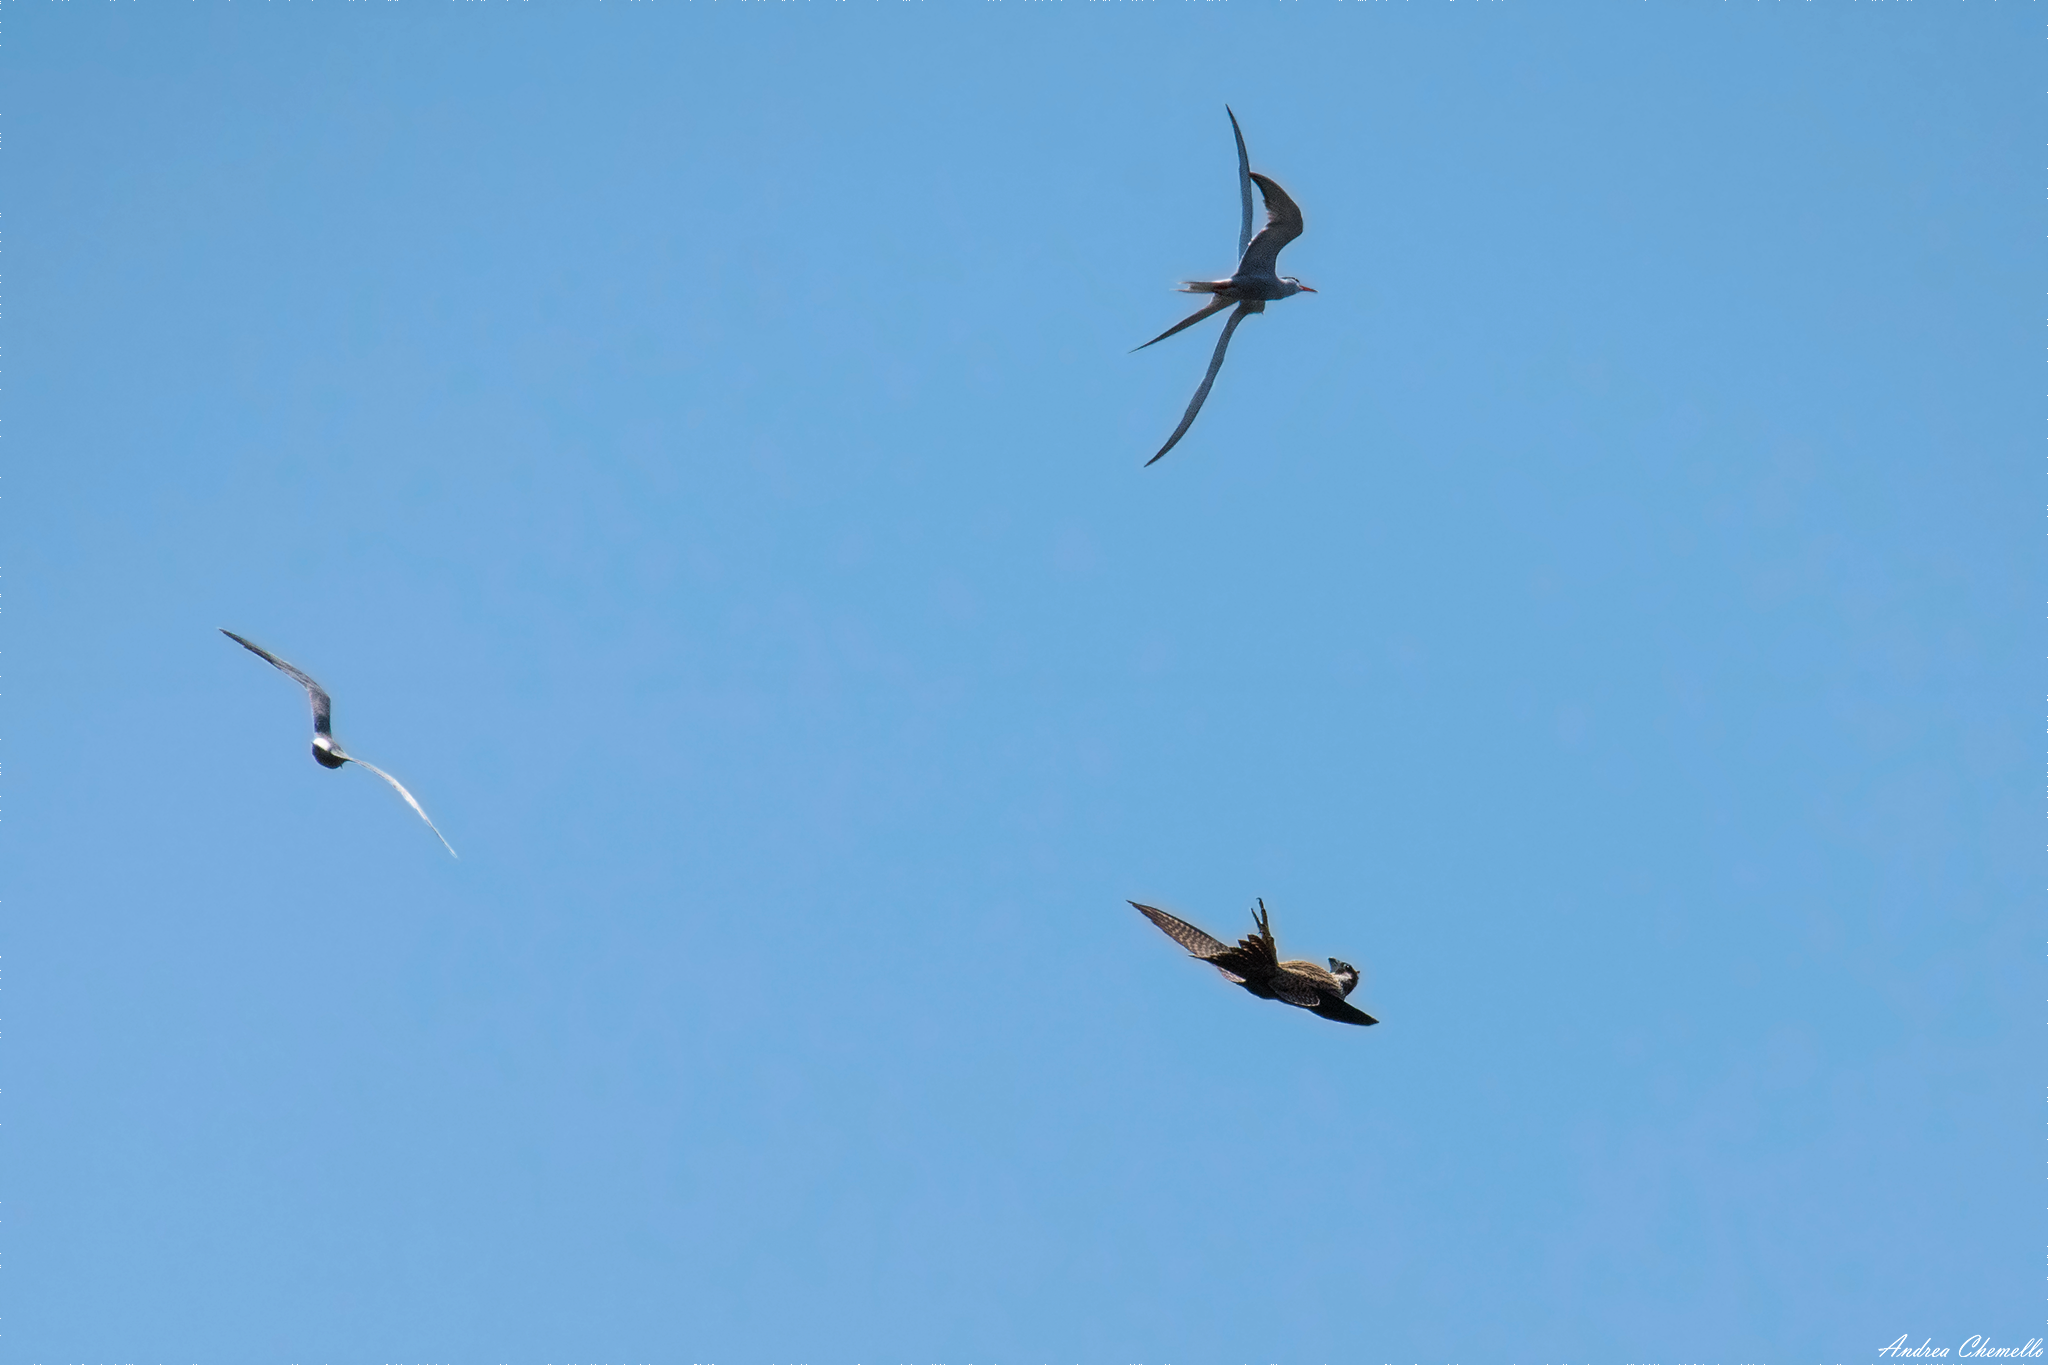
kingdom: Animalia
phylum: Chordata
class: Aves
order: Falconiformes
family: Falconidae
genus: Falco
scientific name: Falco peregrinus
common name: Peregrine falcon
